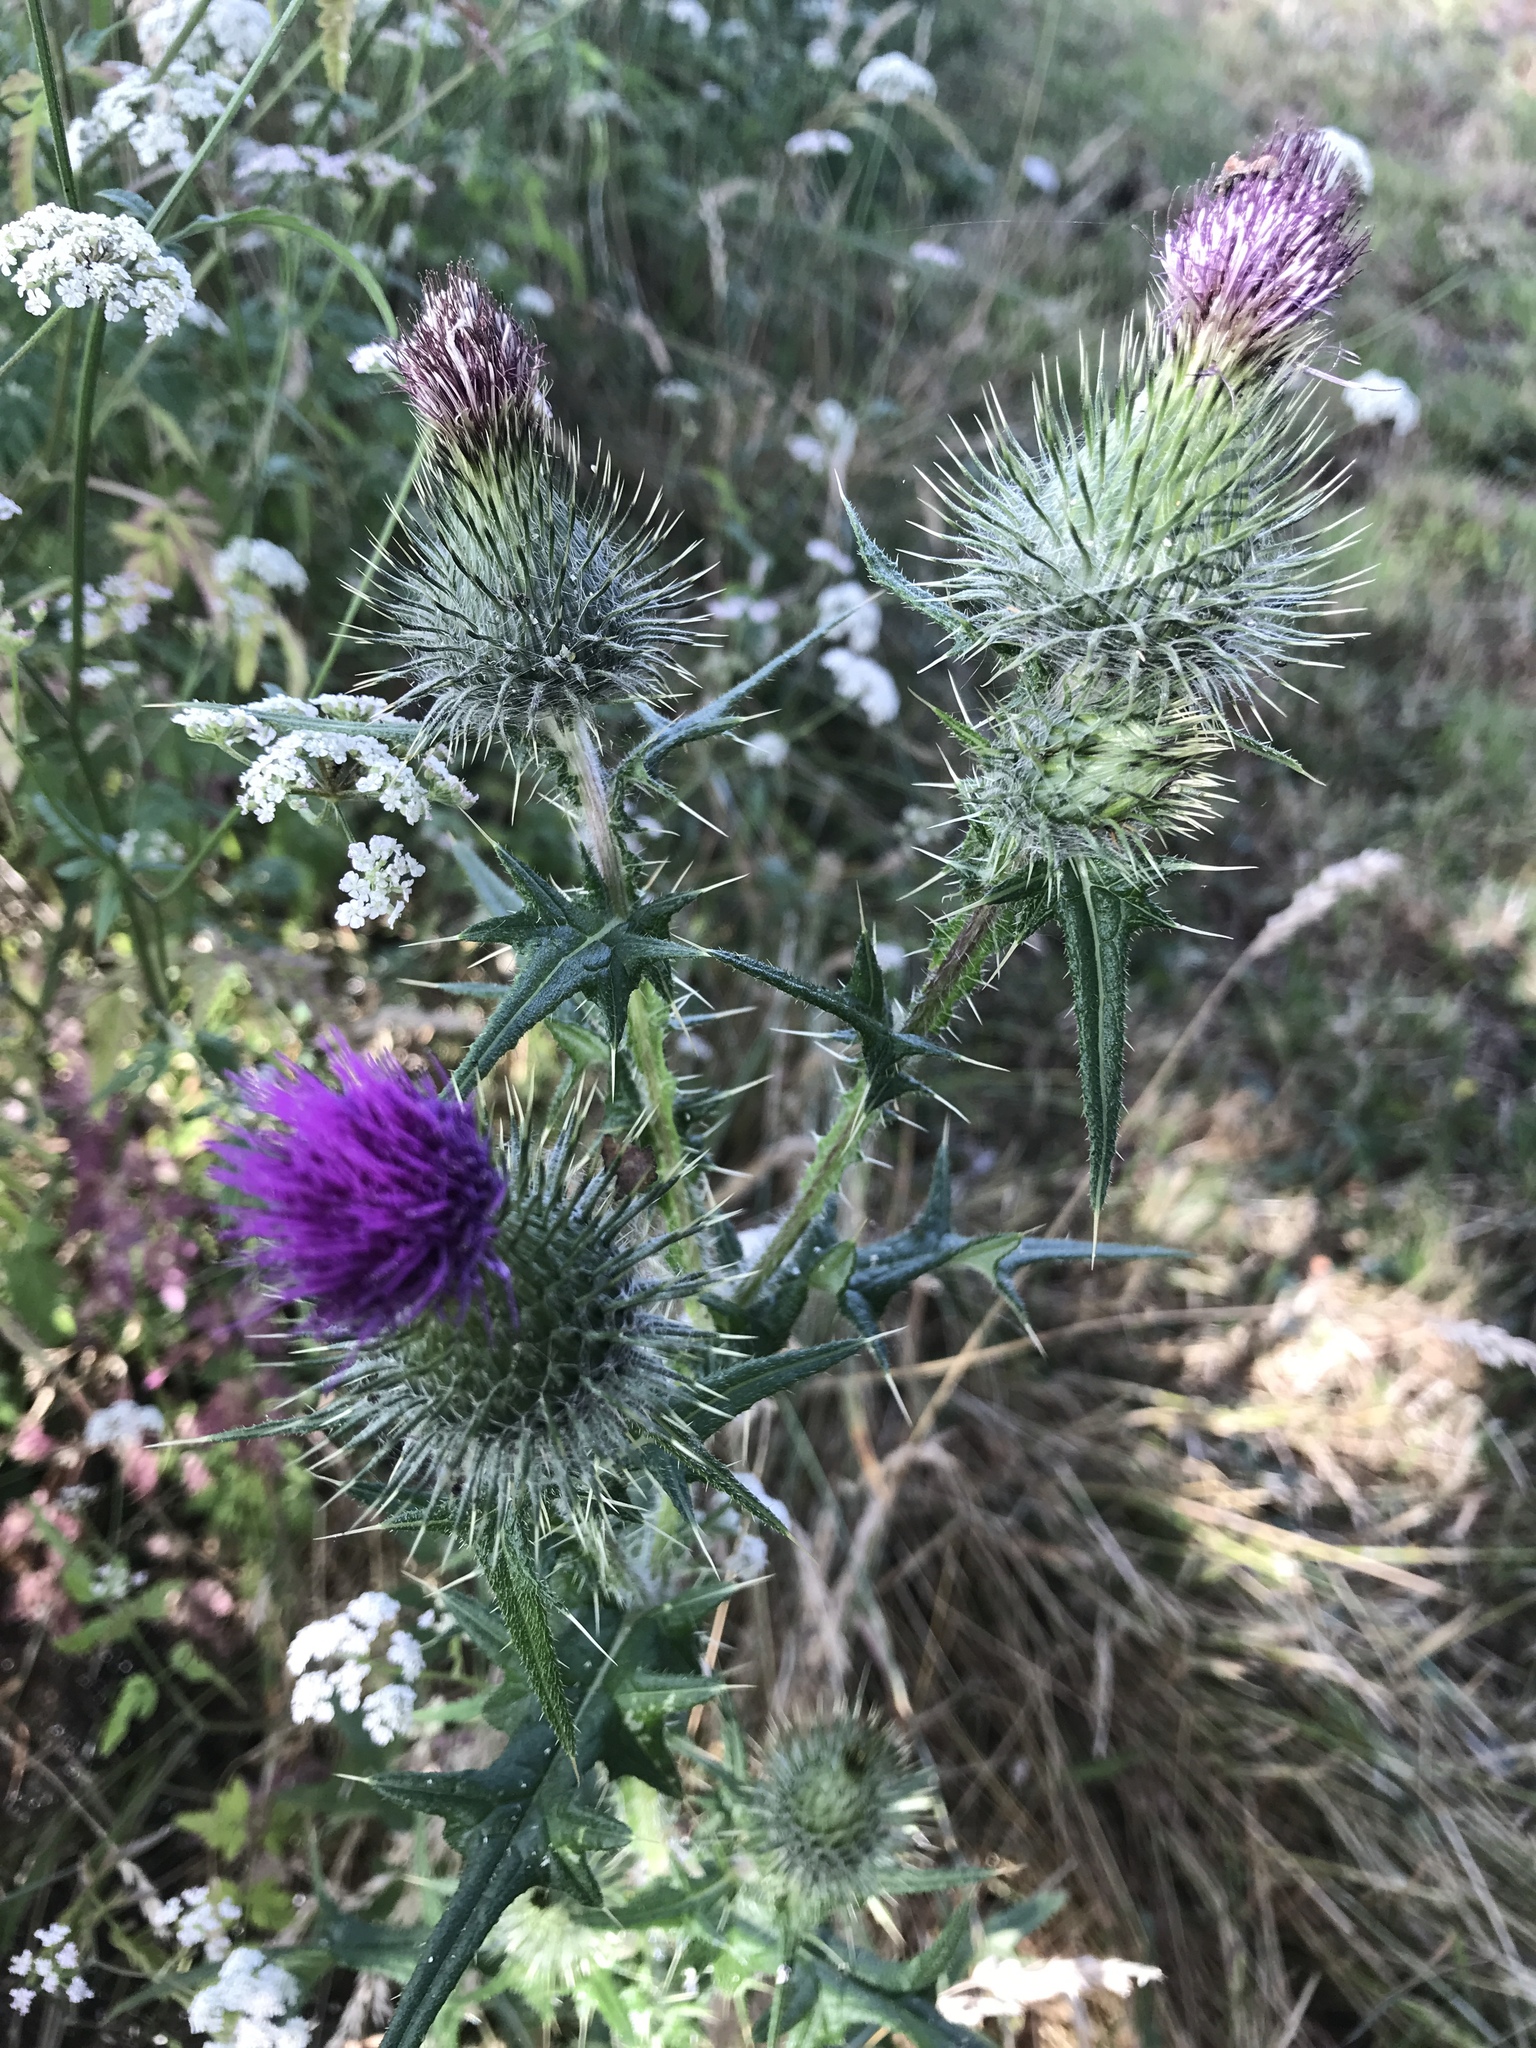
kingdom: Plantae
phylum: Tracheophyta
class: Magnoliopsida
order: Asterales
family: Asteraceae
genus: Cirsium
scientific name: Cirsium vulgare
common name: Bull thistle
